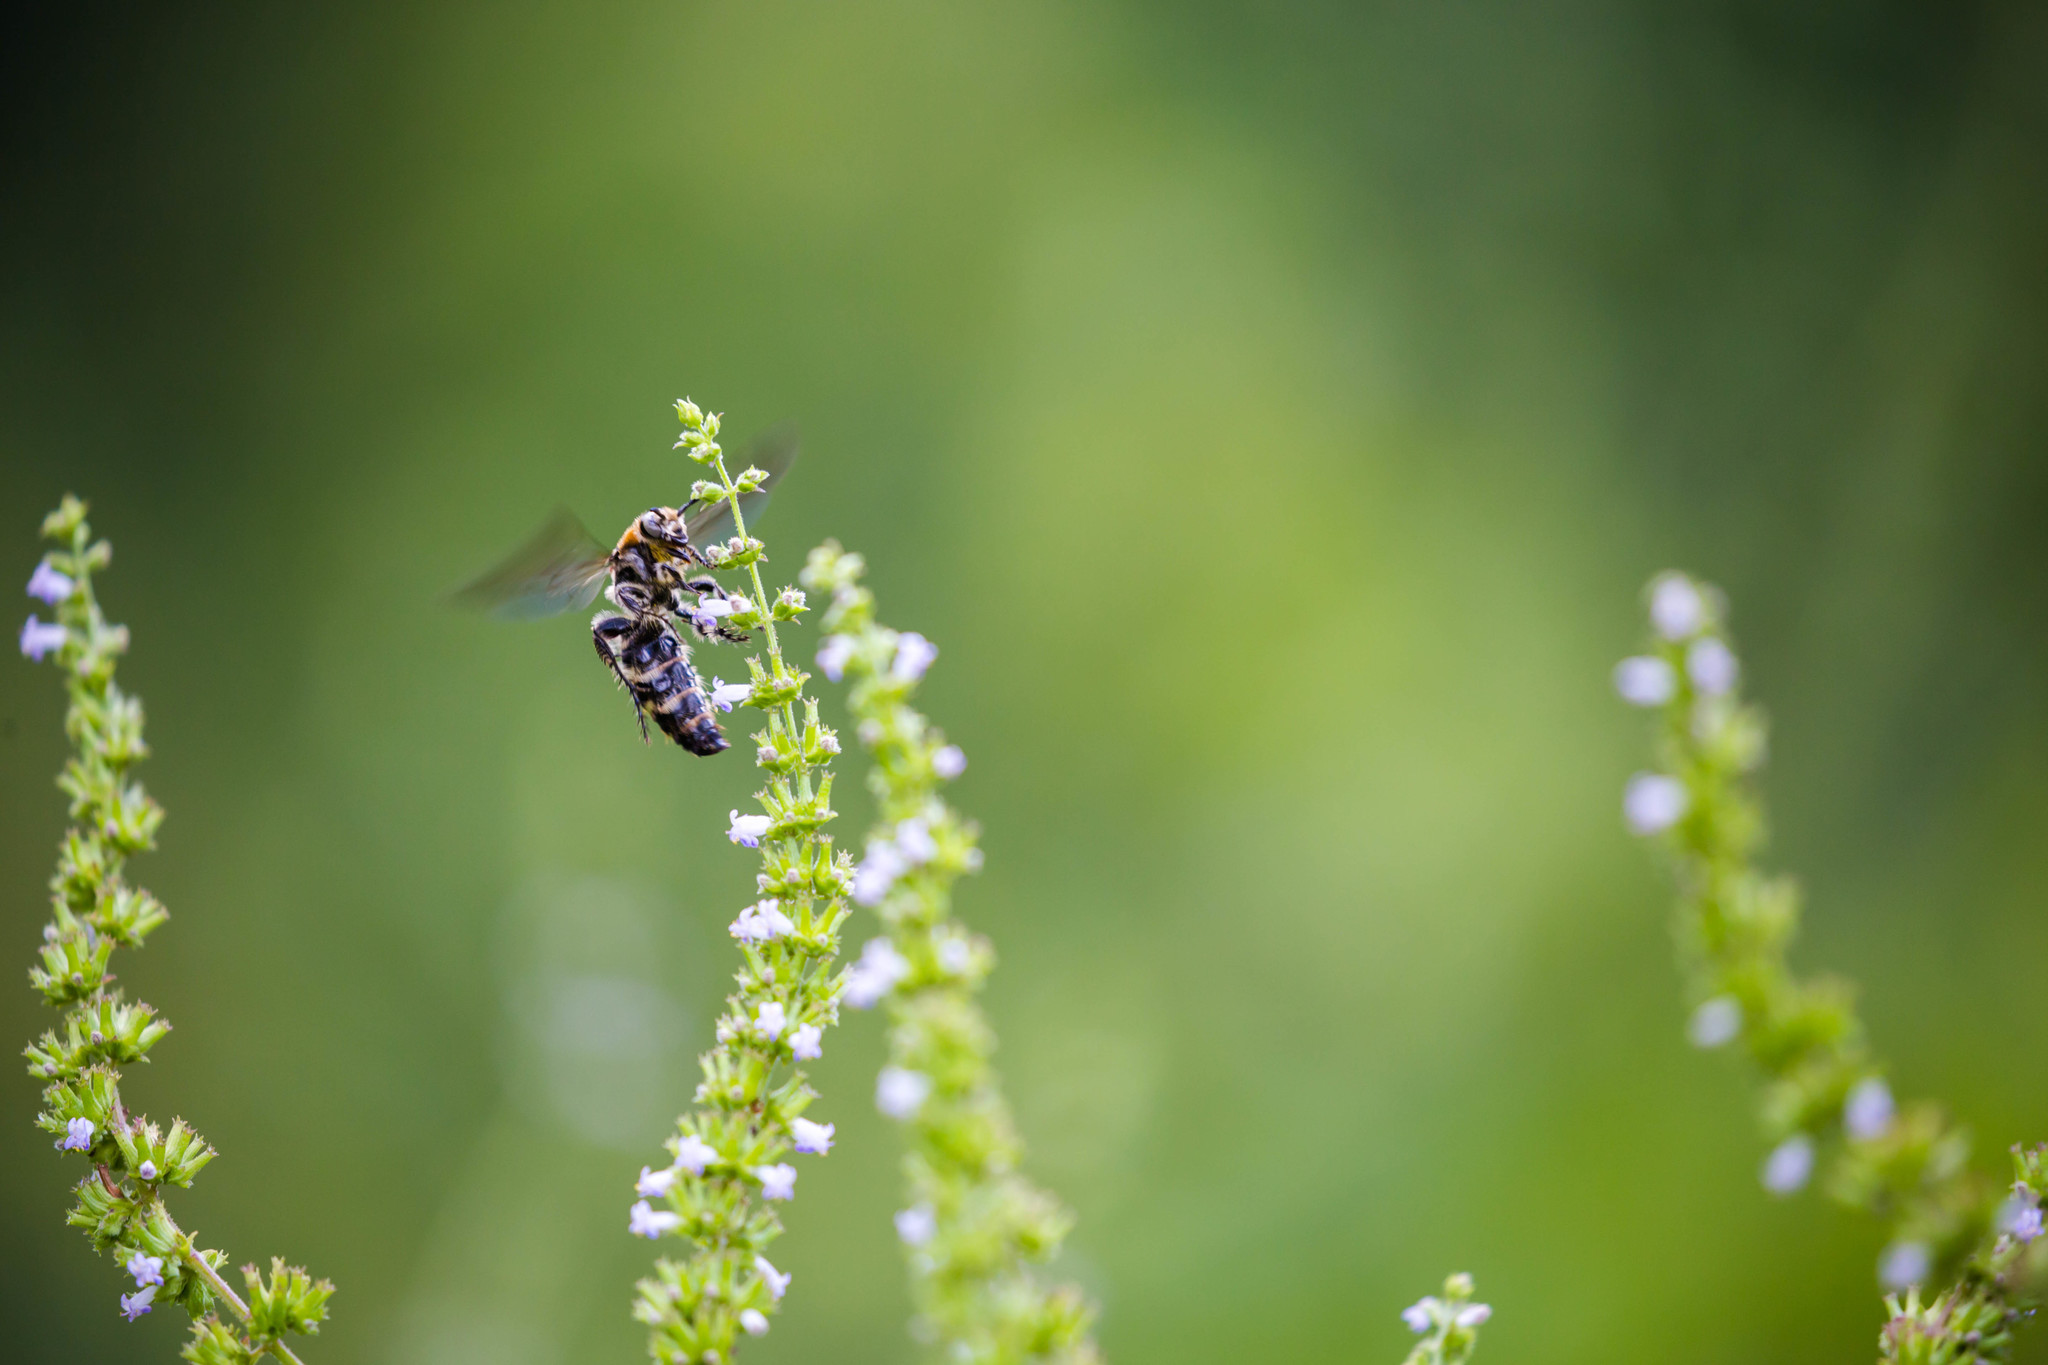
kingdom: Animalia
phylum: Arthropoda
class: Insecta
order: Hymenoptera
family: Scoliidae
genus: Dielis
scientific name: Dielis
